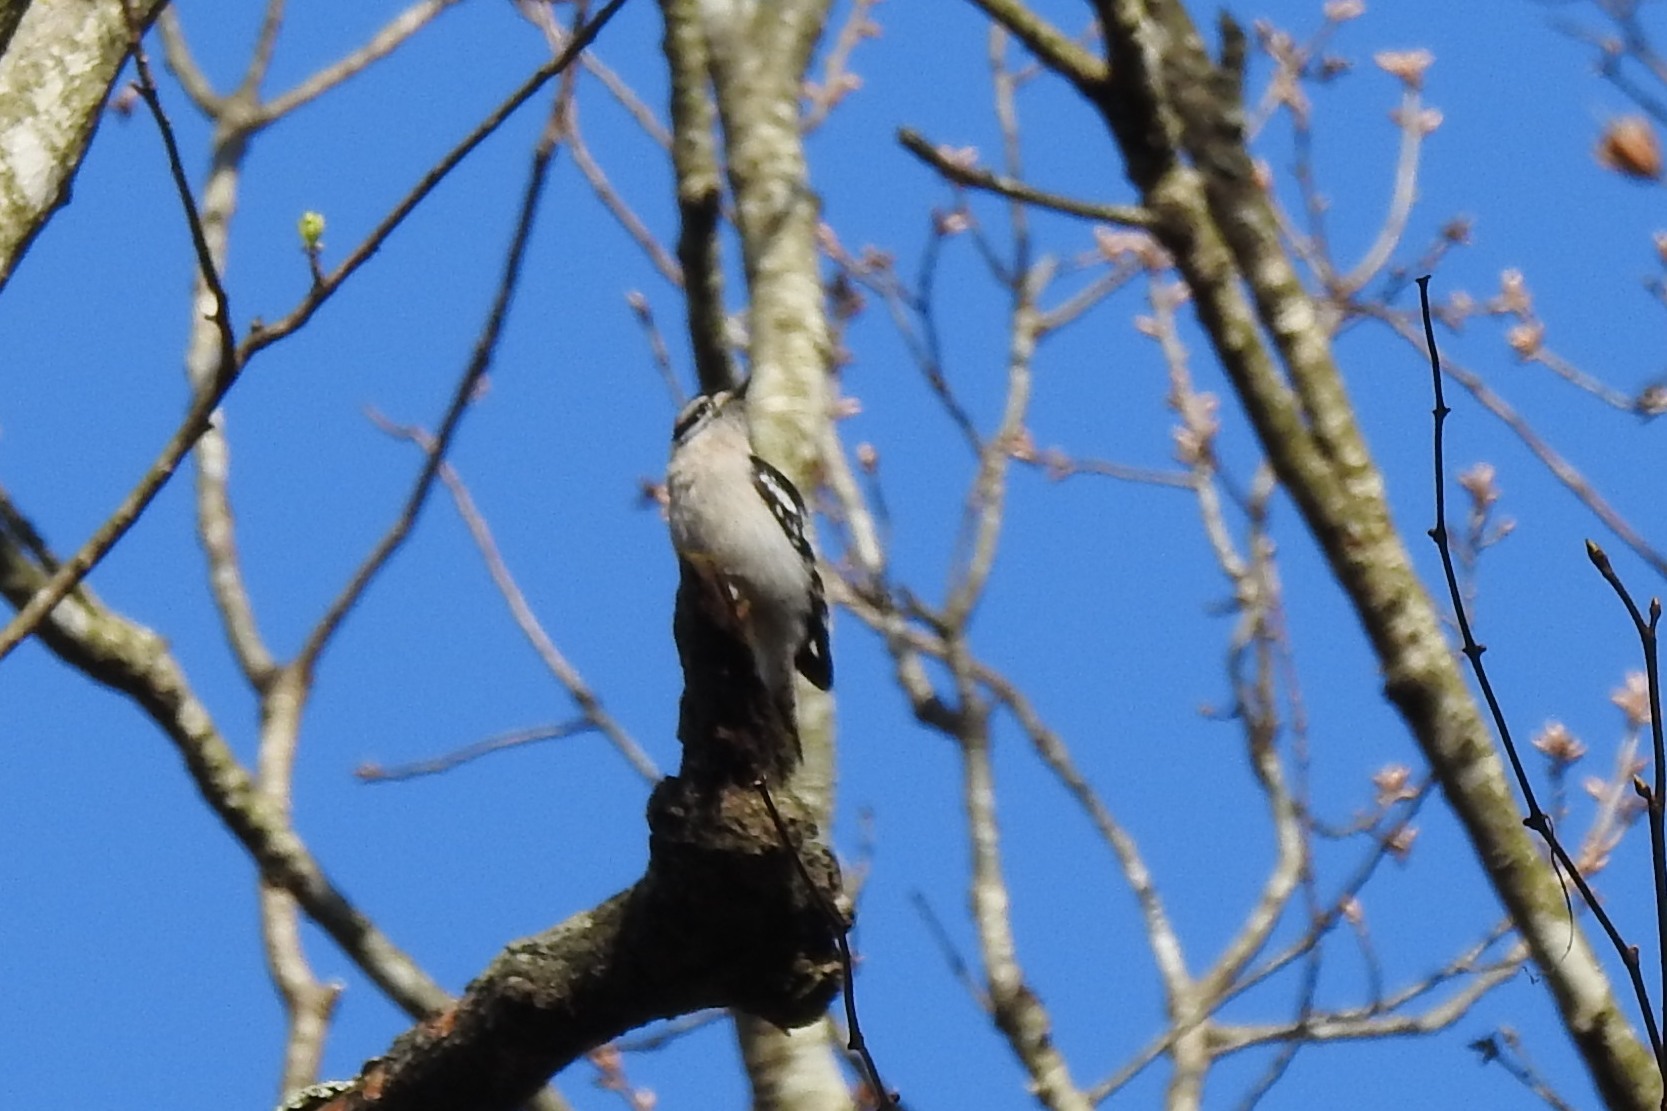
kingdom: Animalia
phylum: Chordata
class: Aves
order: Piciformes
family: Picidae
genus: Dryobates
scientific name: Dryobates pubescens
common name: Downy woodpecker
